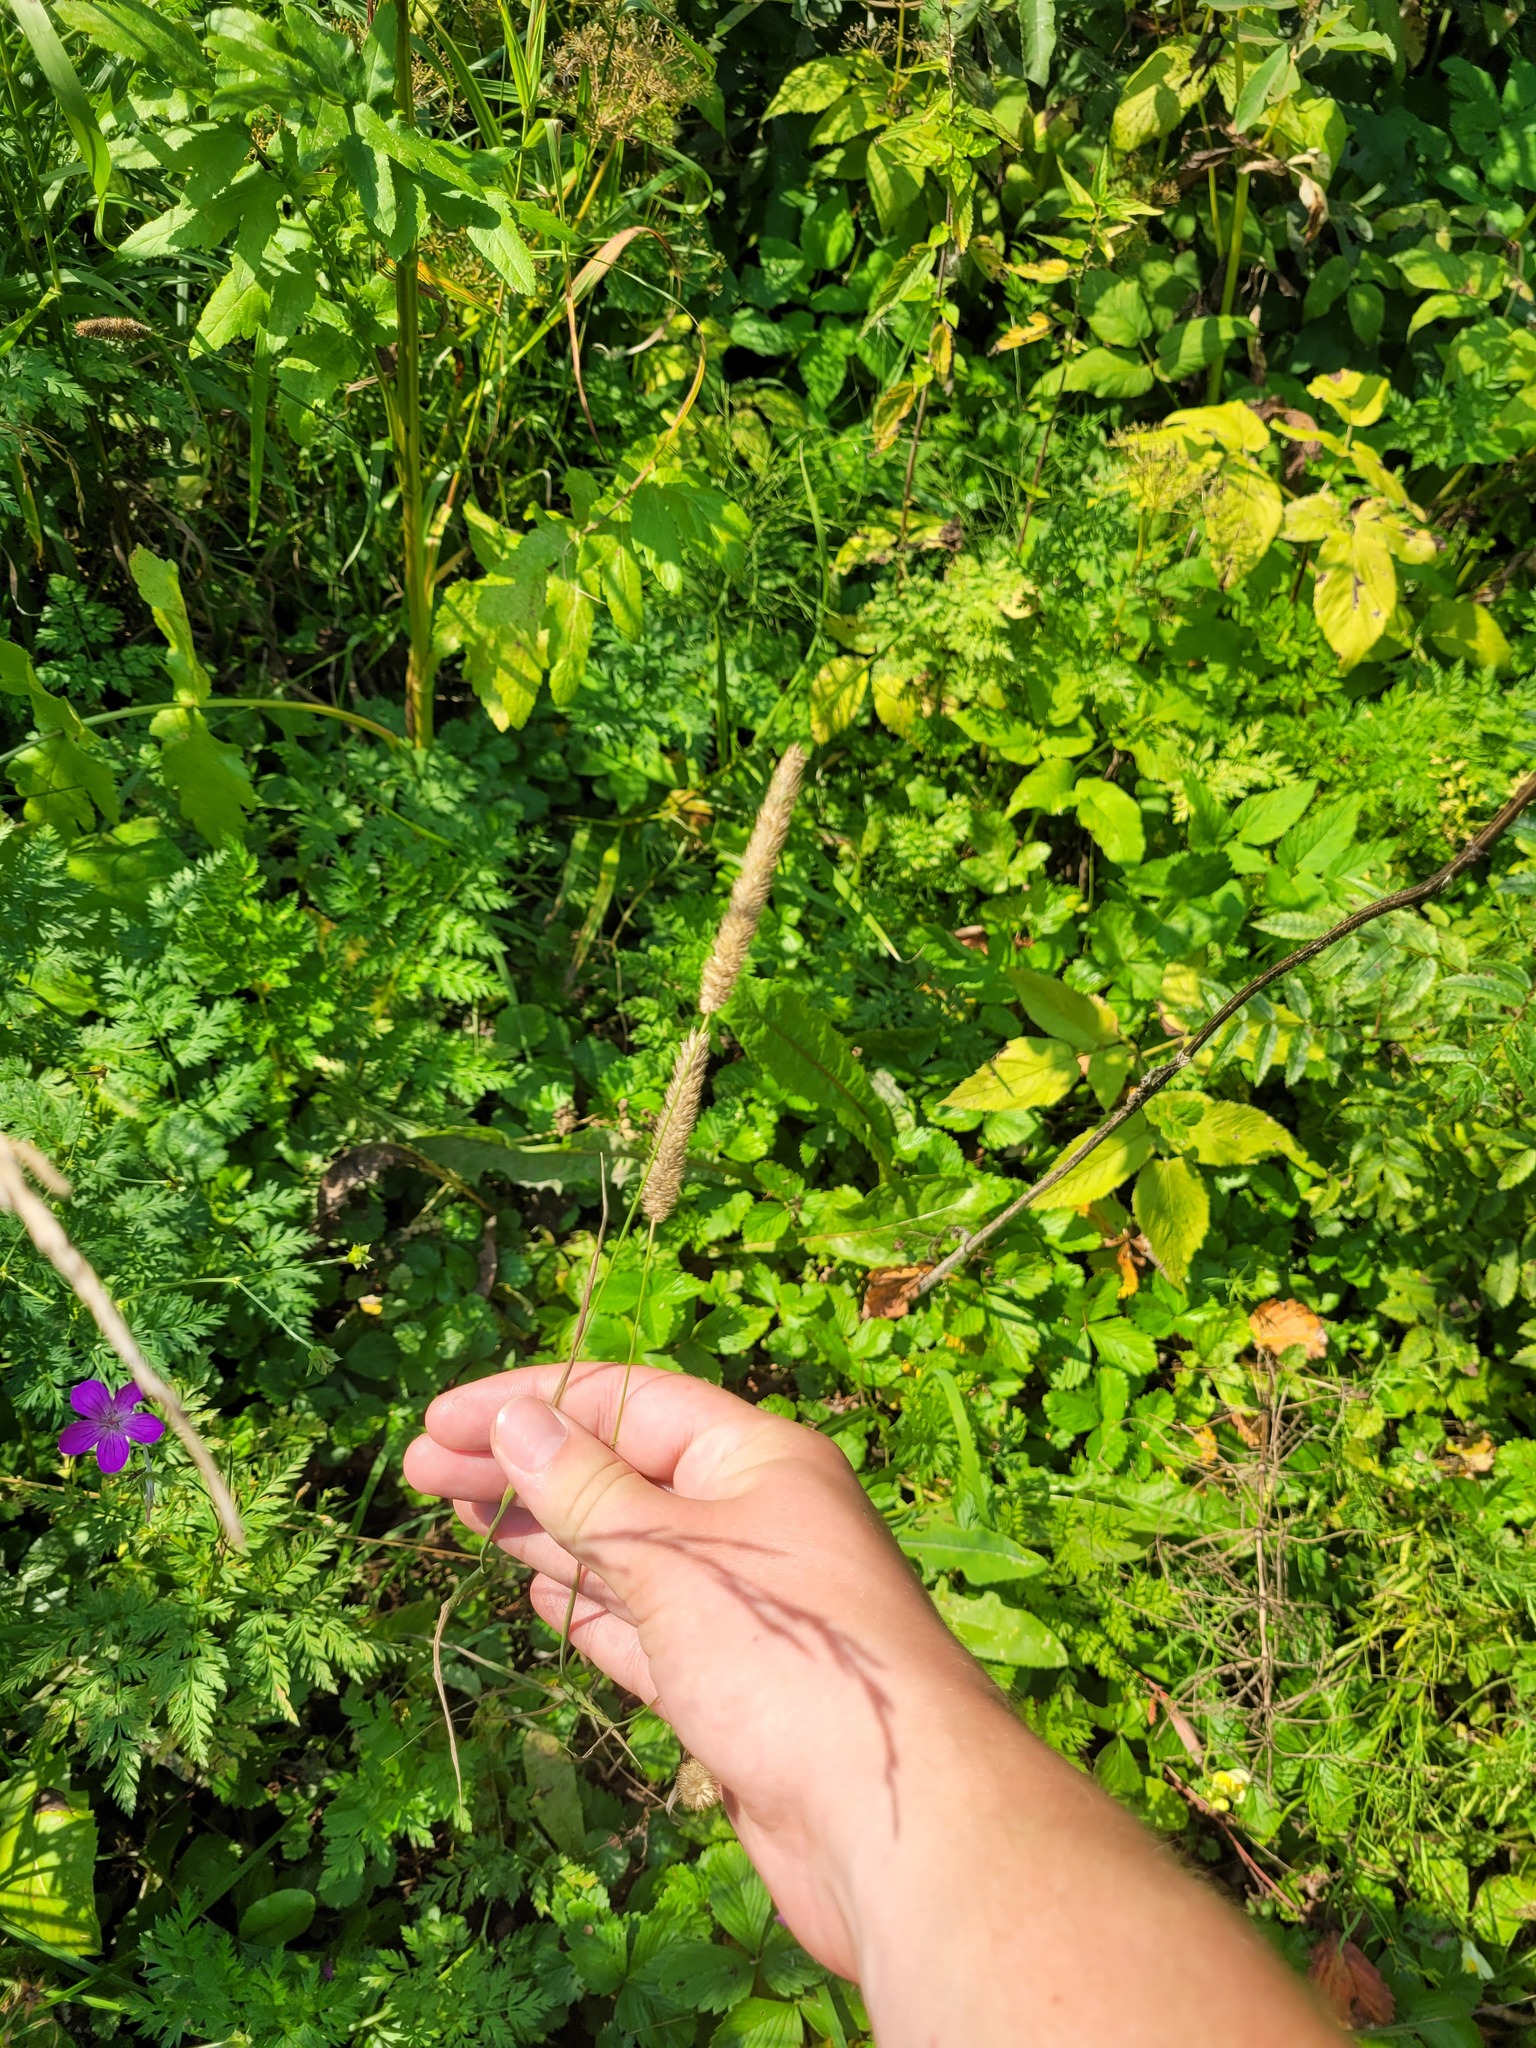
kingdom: Plantae
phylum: Tracheophyta
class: Liliopsida
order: Poales
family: Poaceae
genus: Phleum
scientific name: Phleum pratense
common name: Timothy grass
